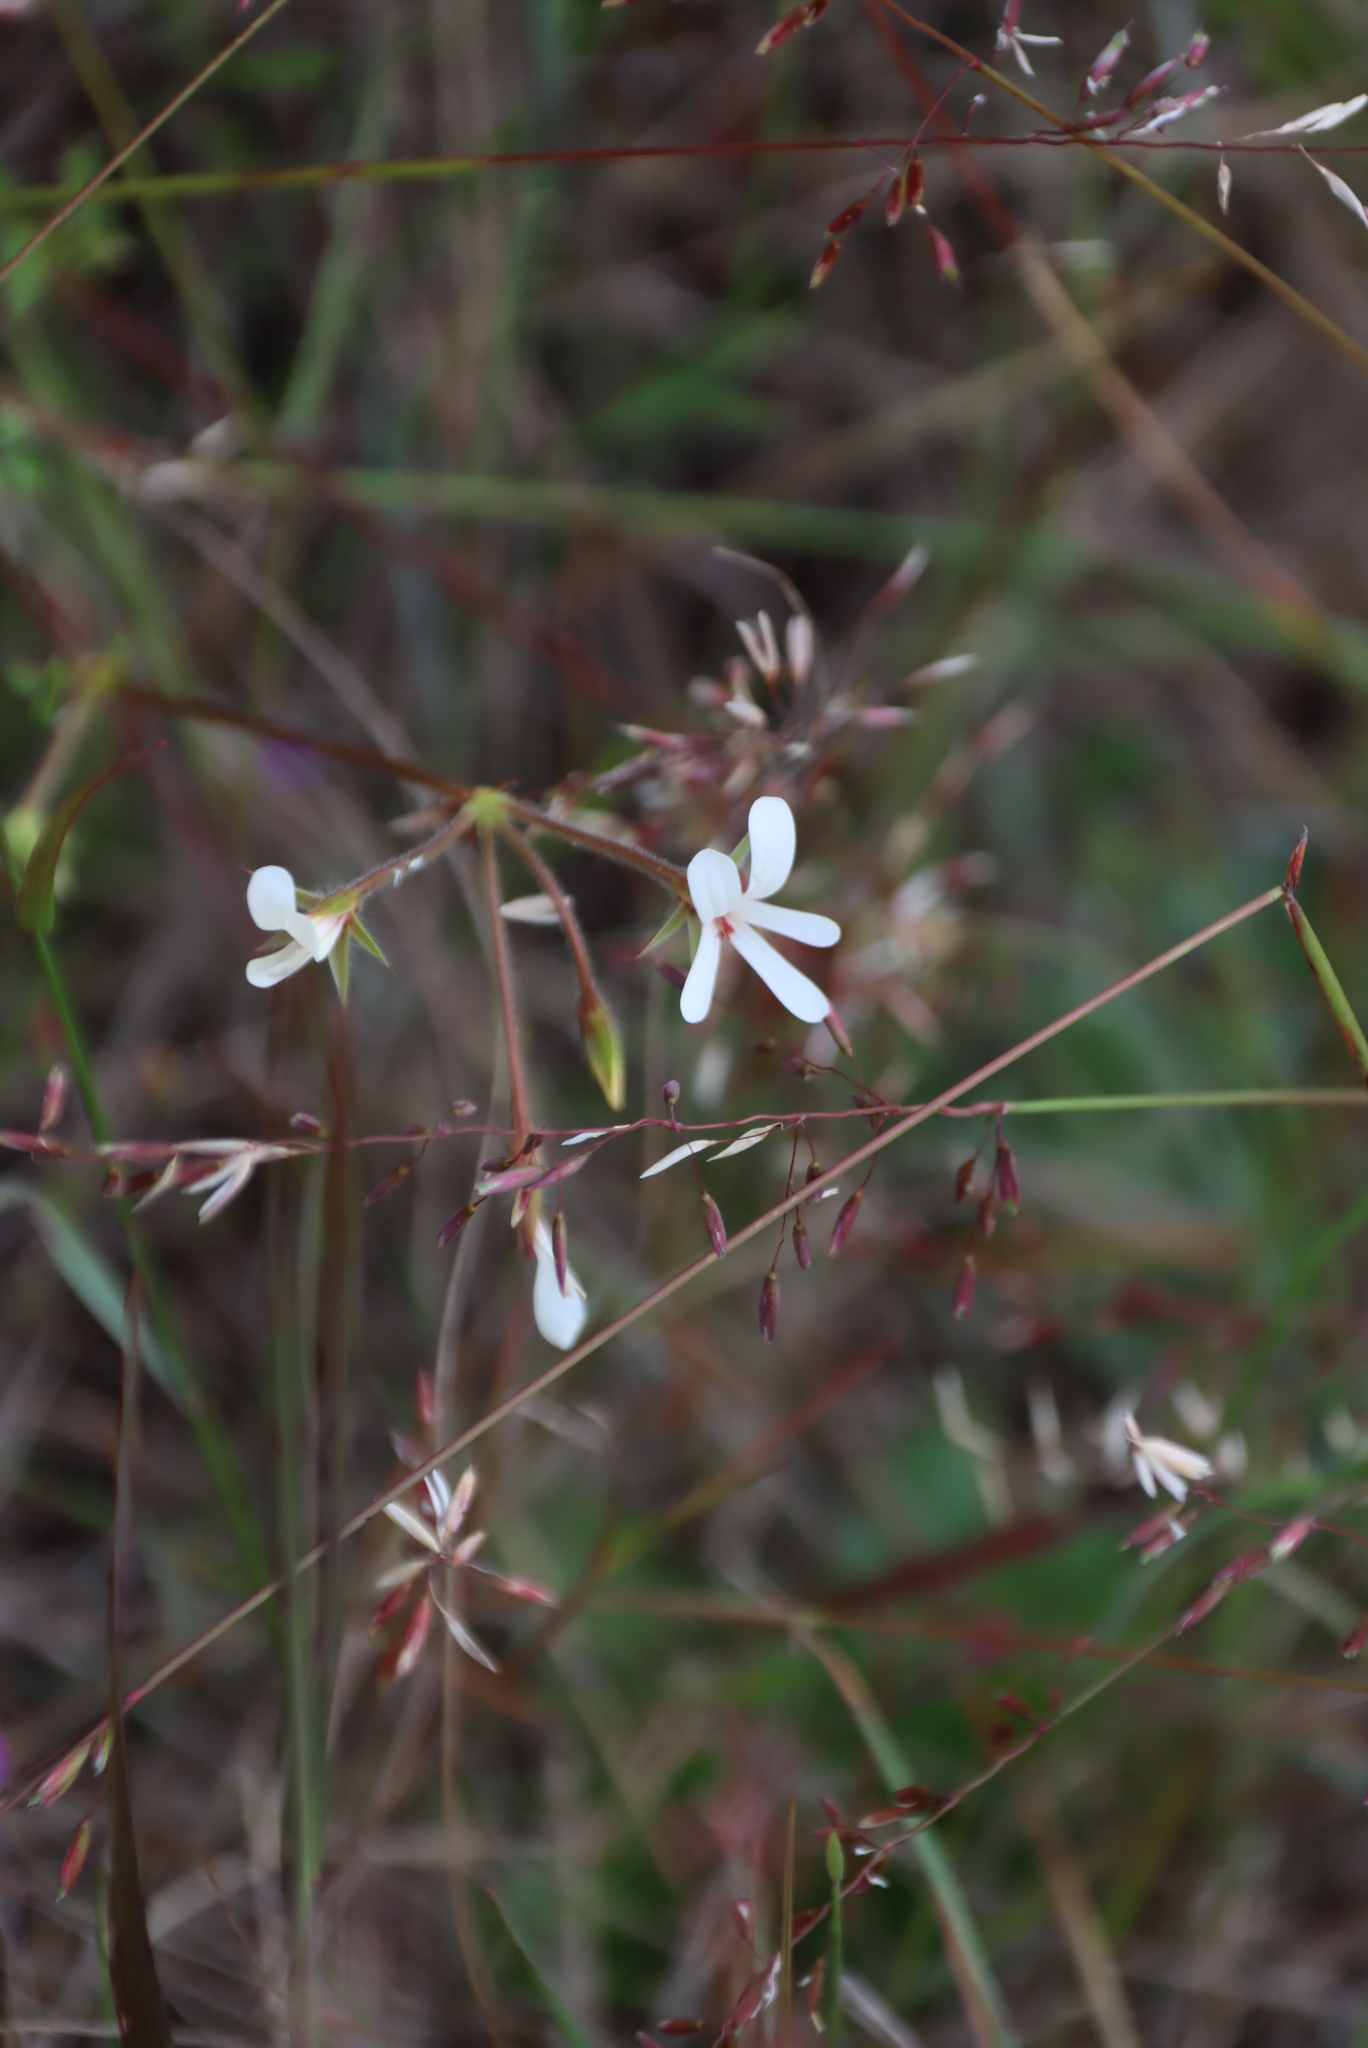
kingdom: Plantae
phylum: Tracheophyta
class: Magnoliopsida
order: Geraniales
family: Geraniaceae
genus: Pelargonium
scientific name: Pelargonium elongatum
